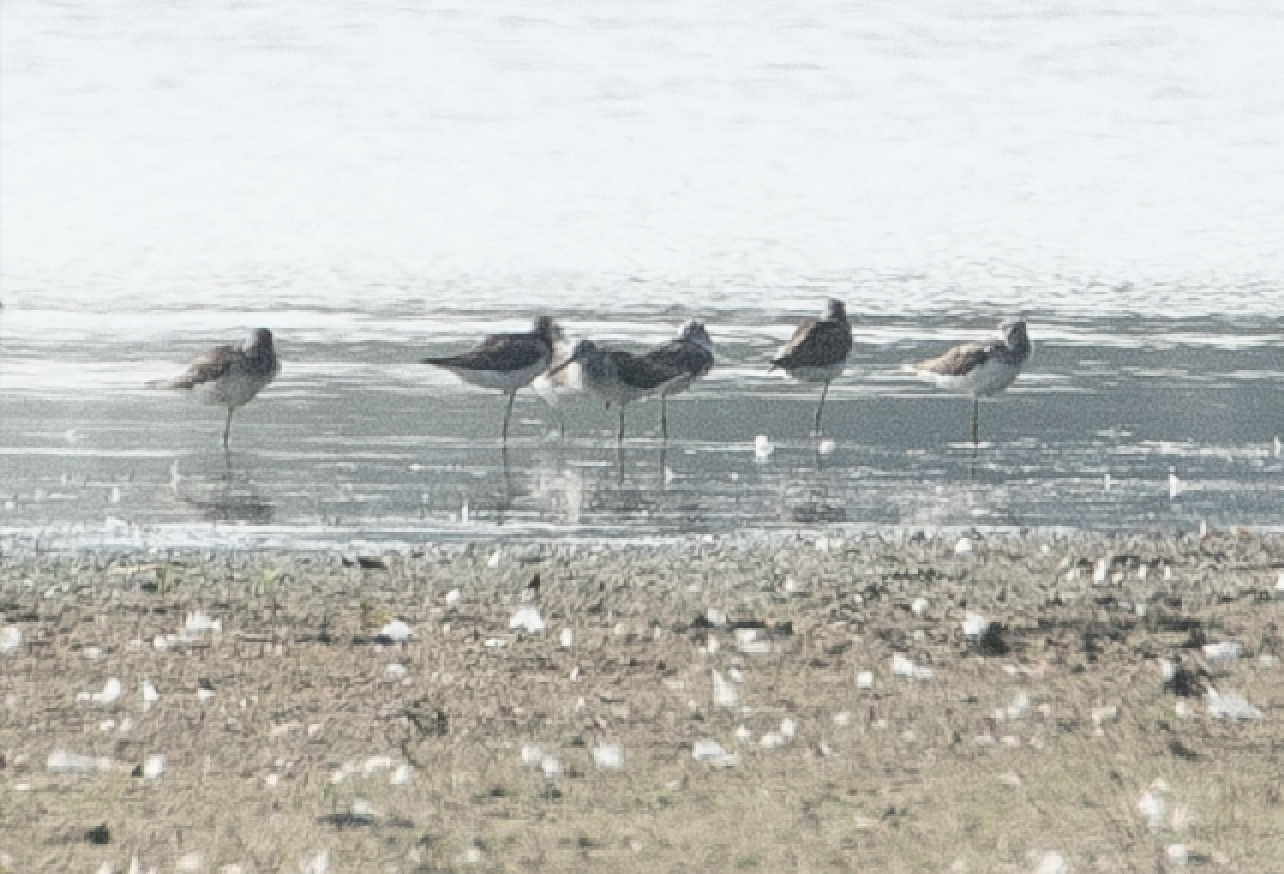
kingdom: Animalia
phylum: Chordata
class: Aves
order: Charadriiformes
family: Scolopacidae
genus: Tringa
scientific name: Tringa nebularia
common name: Common greenshank
